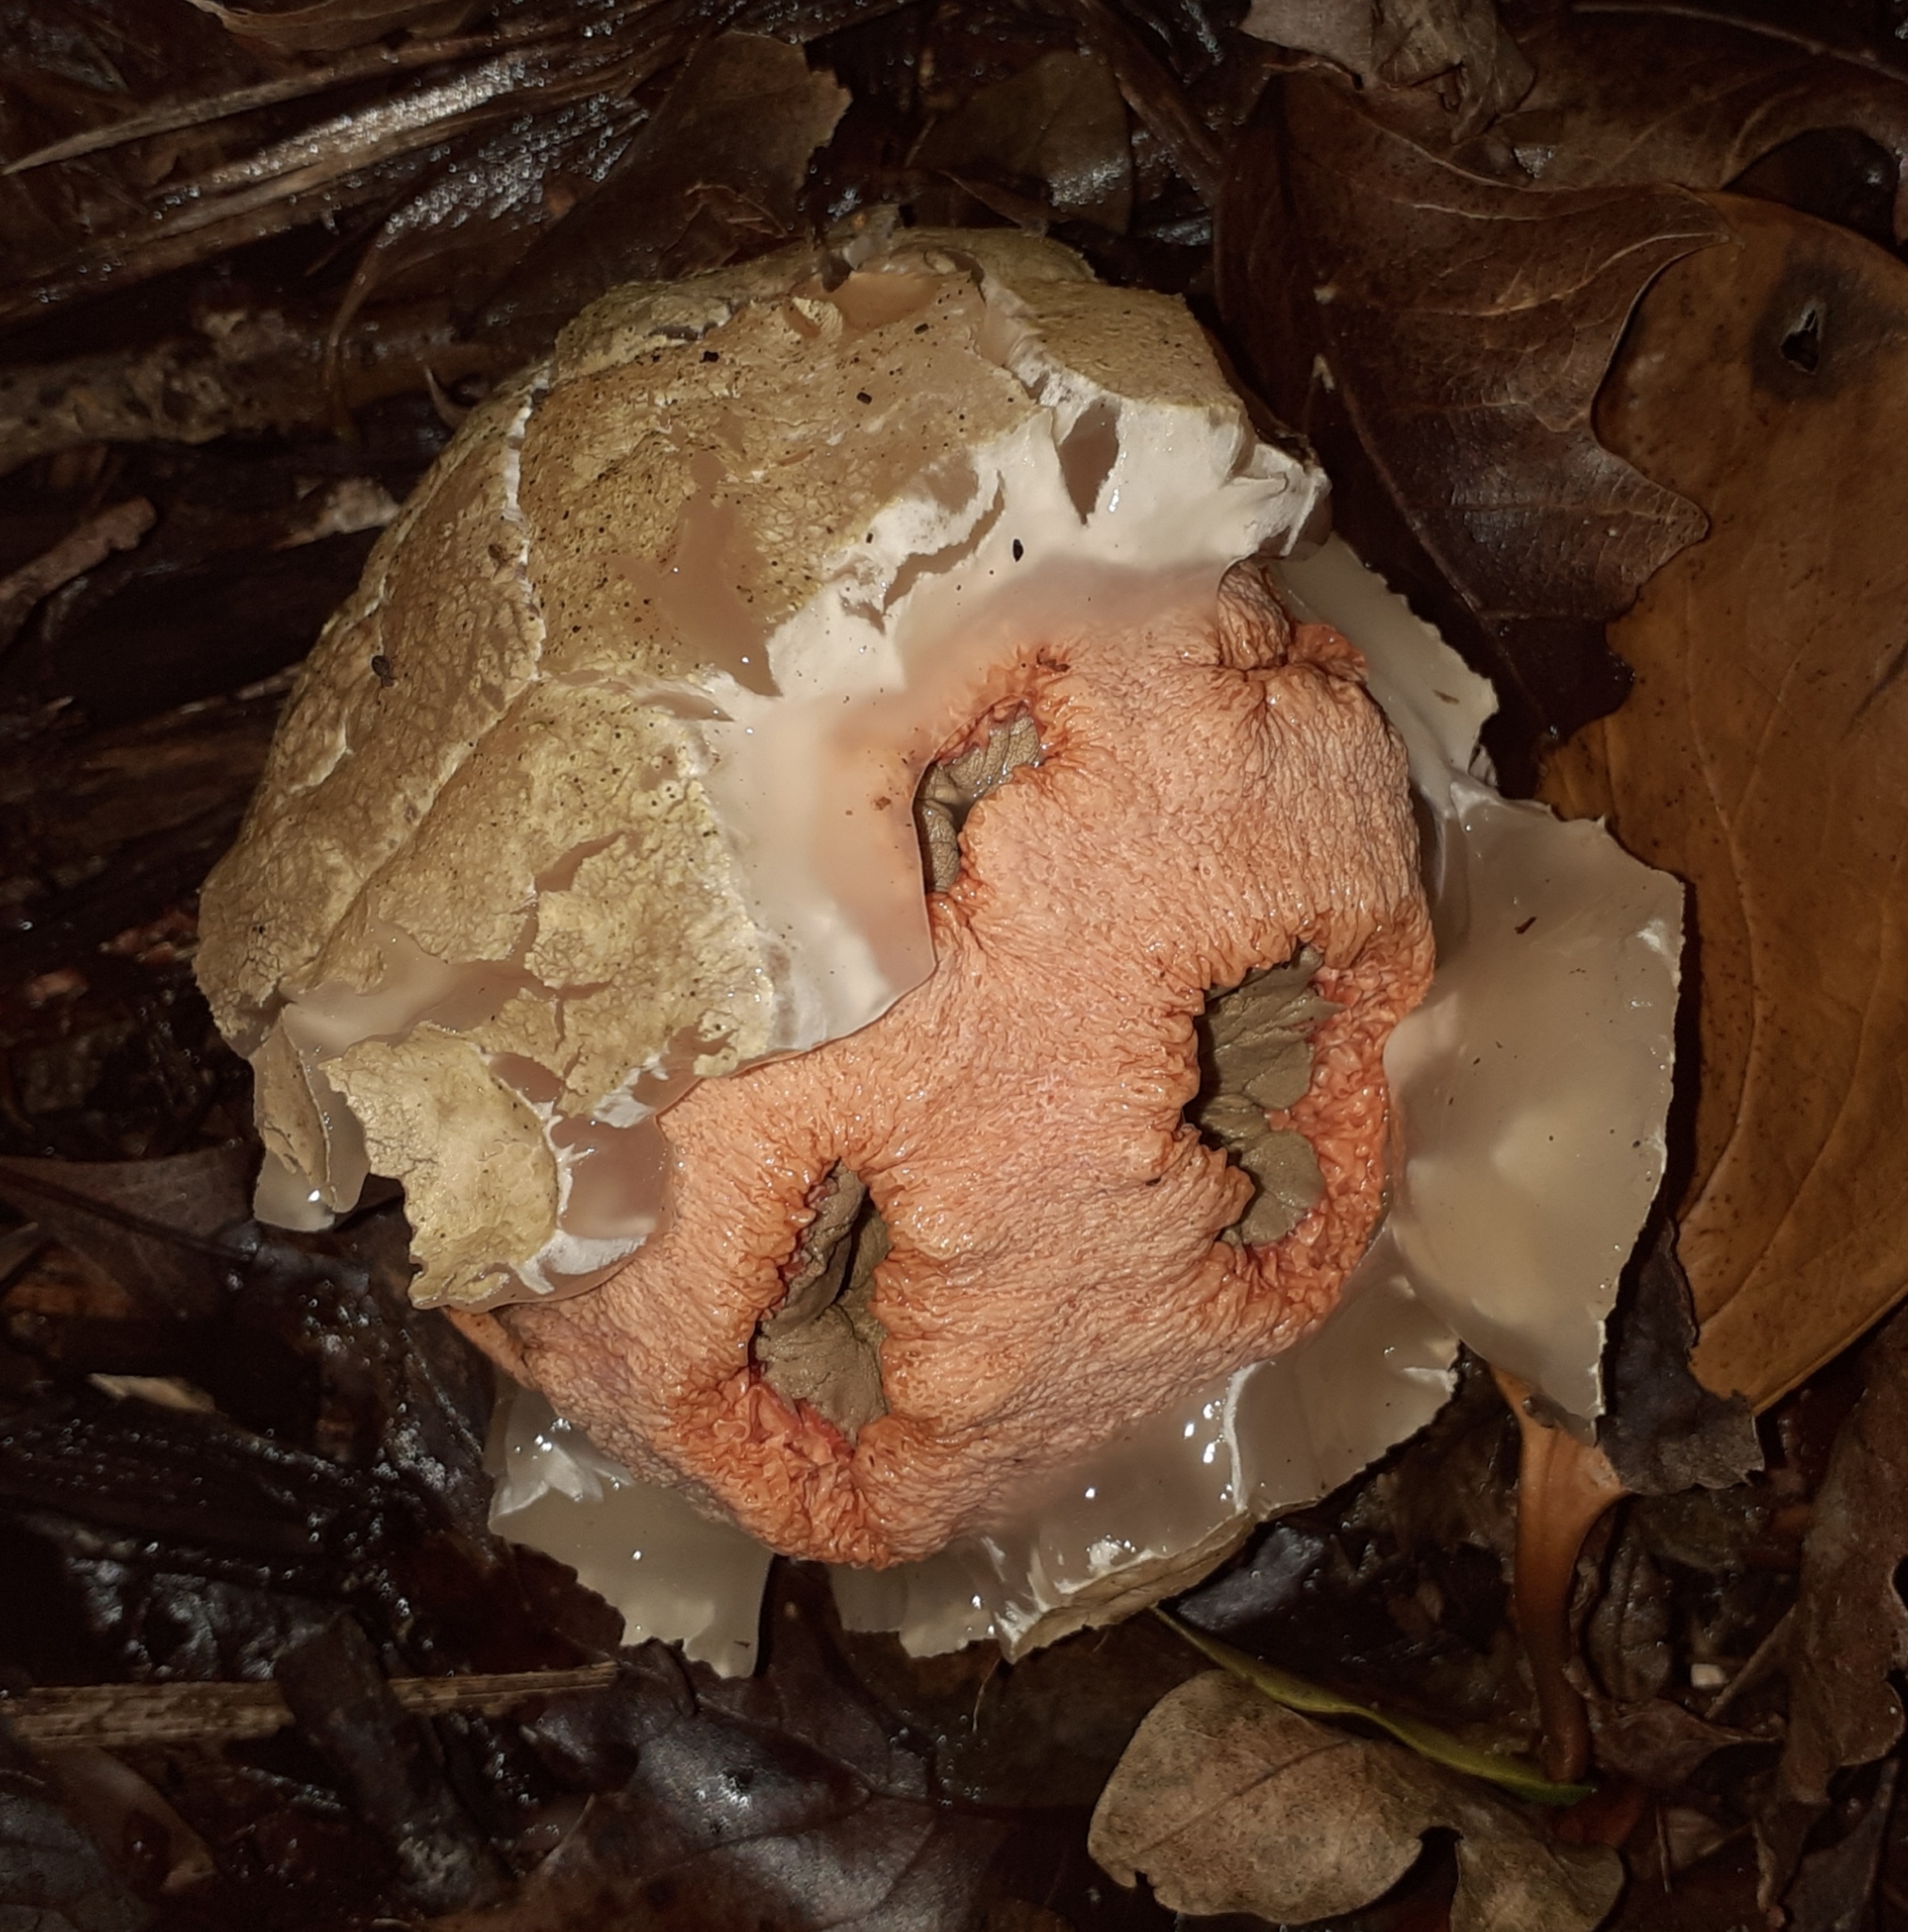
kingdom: Fungi
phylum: Basidiomycota
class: Agaricomycetes
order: Phallales
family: Phallaceae
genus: Clathrus
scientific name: Clathrus ruber
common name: Red cage
